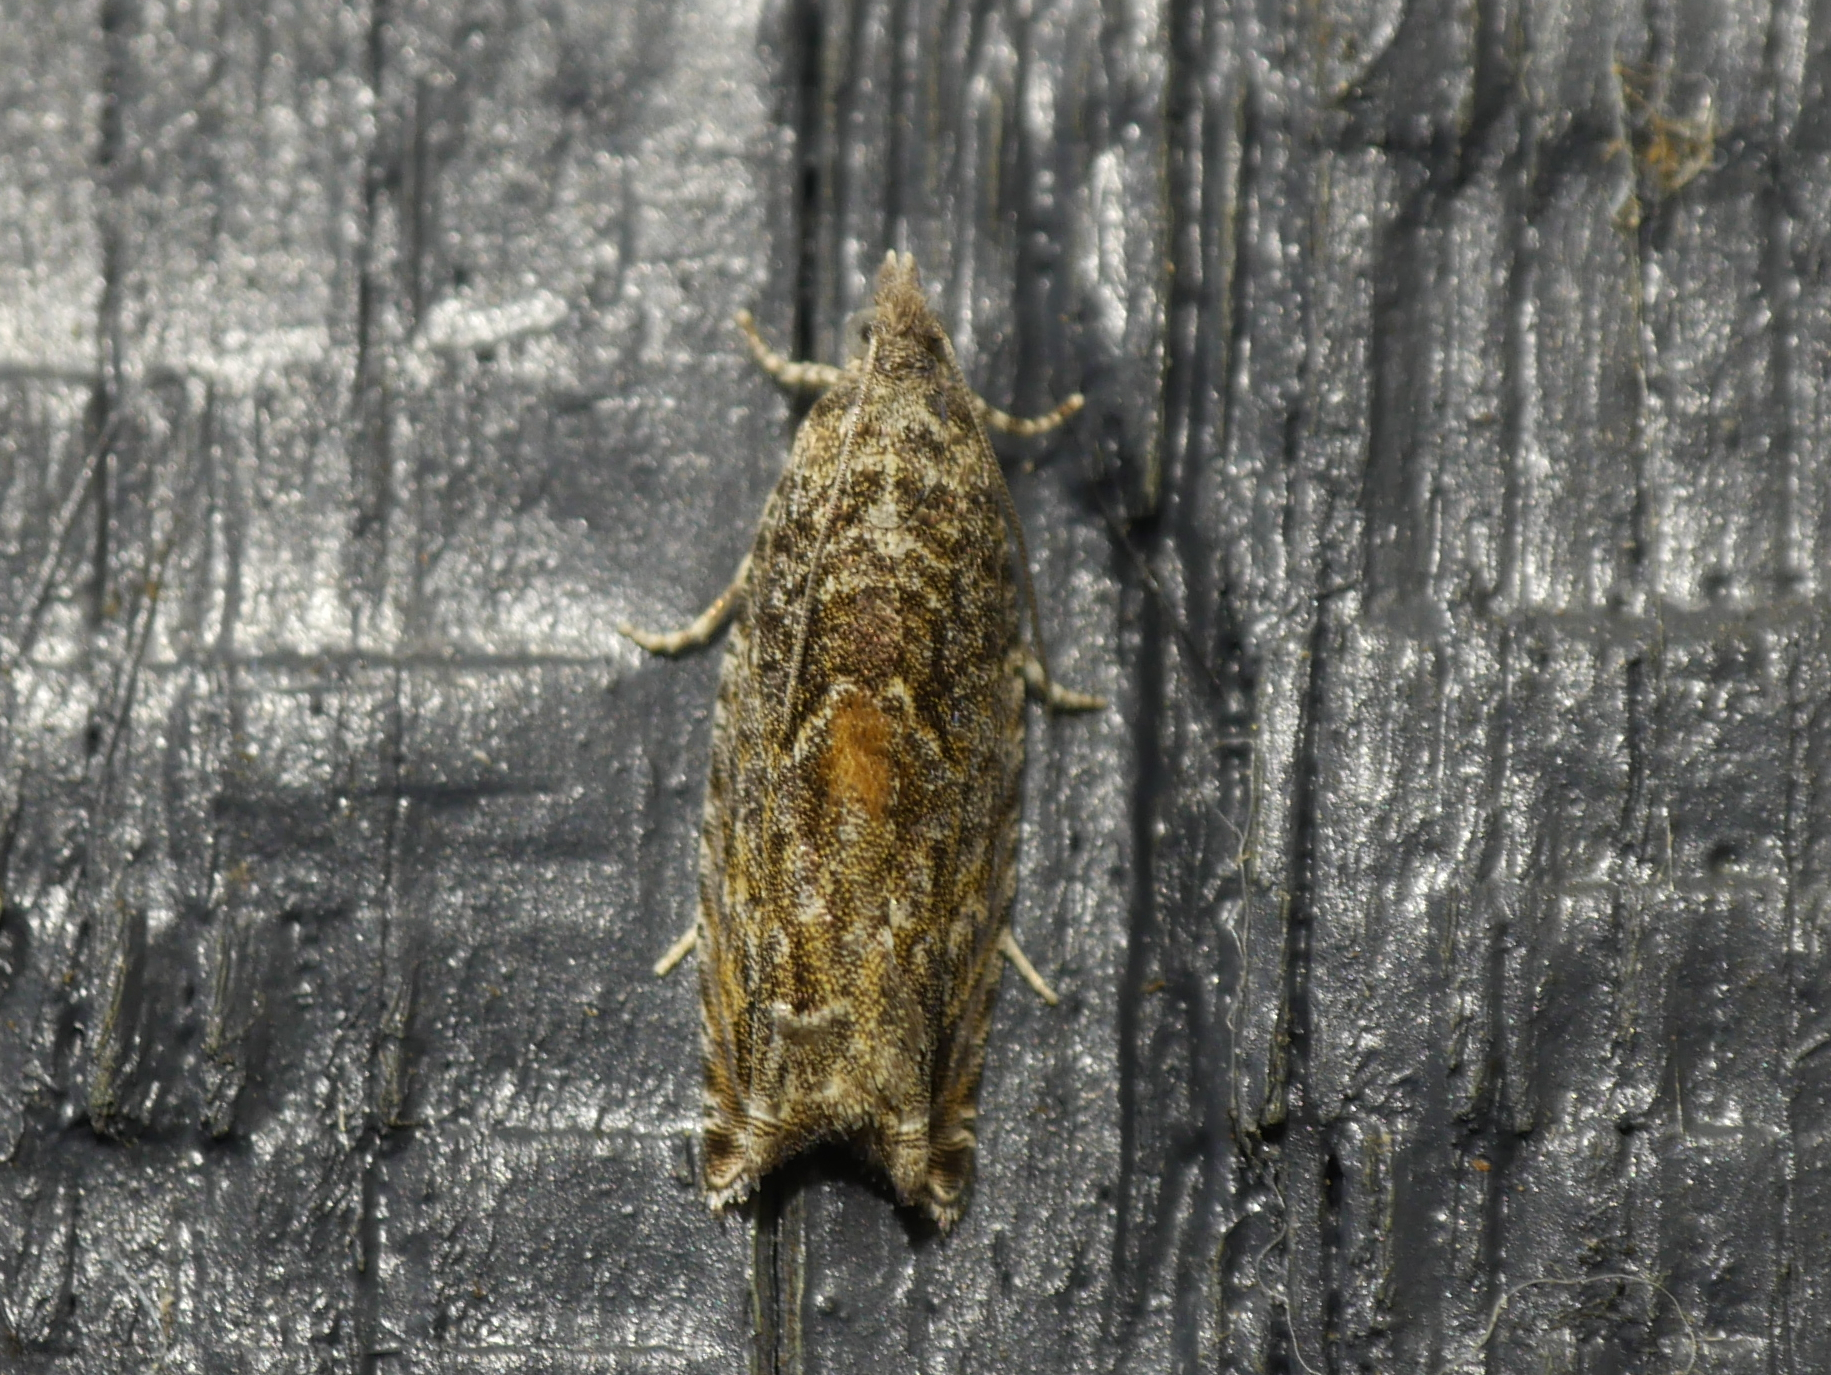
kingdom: Animalia
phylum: Arthropoda
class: Insecta
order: Lepidoptera
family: Tortricidae
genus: Epinotia
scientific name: Epinotia nisella
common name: Grey poplar bell
